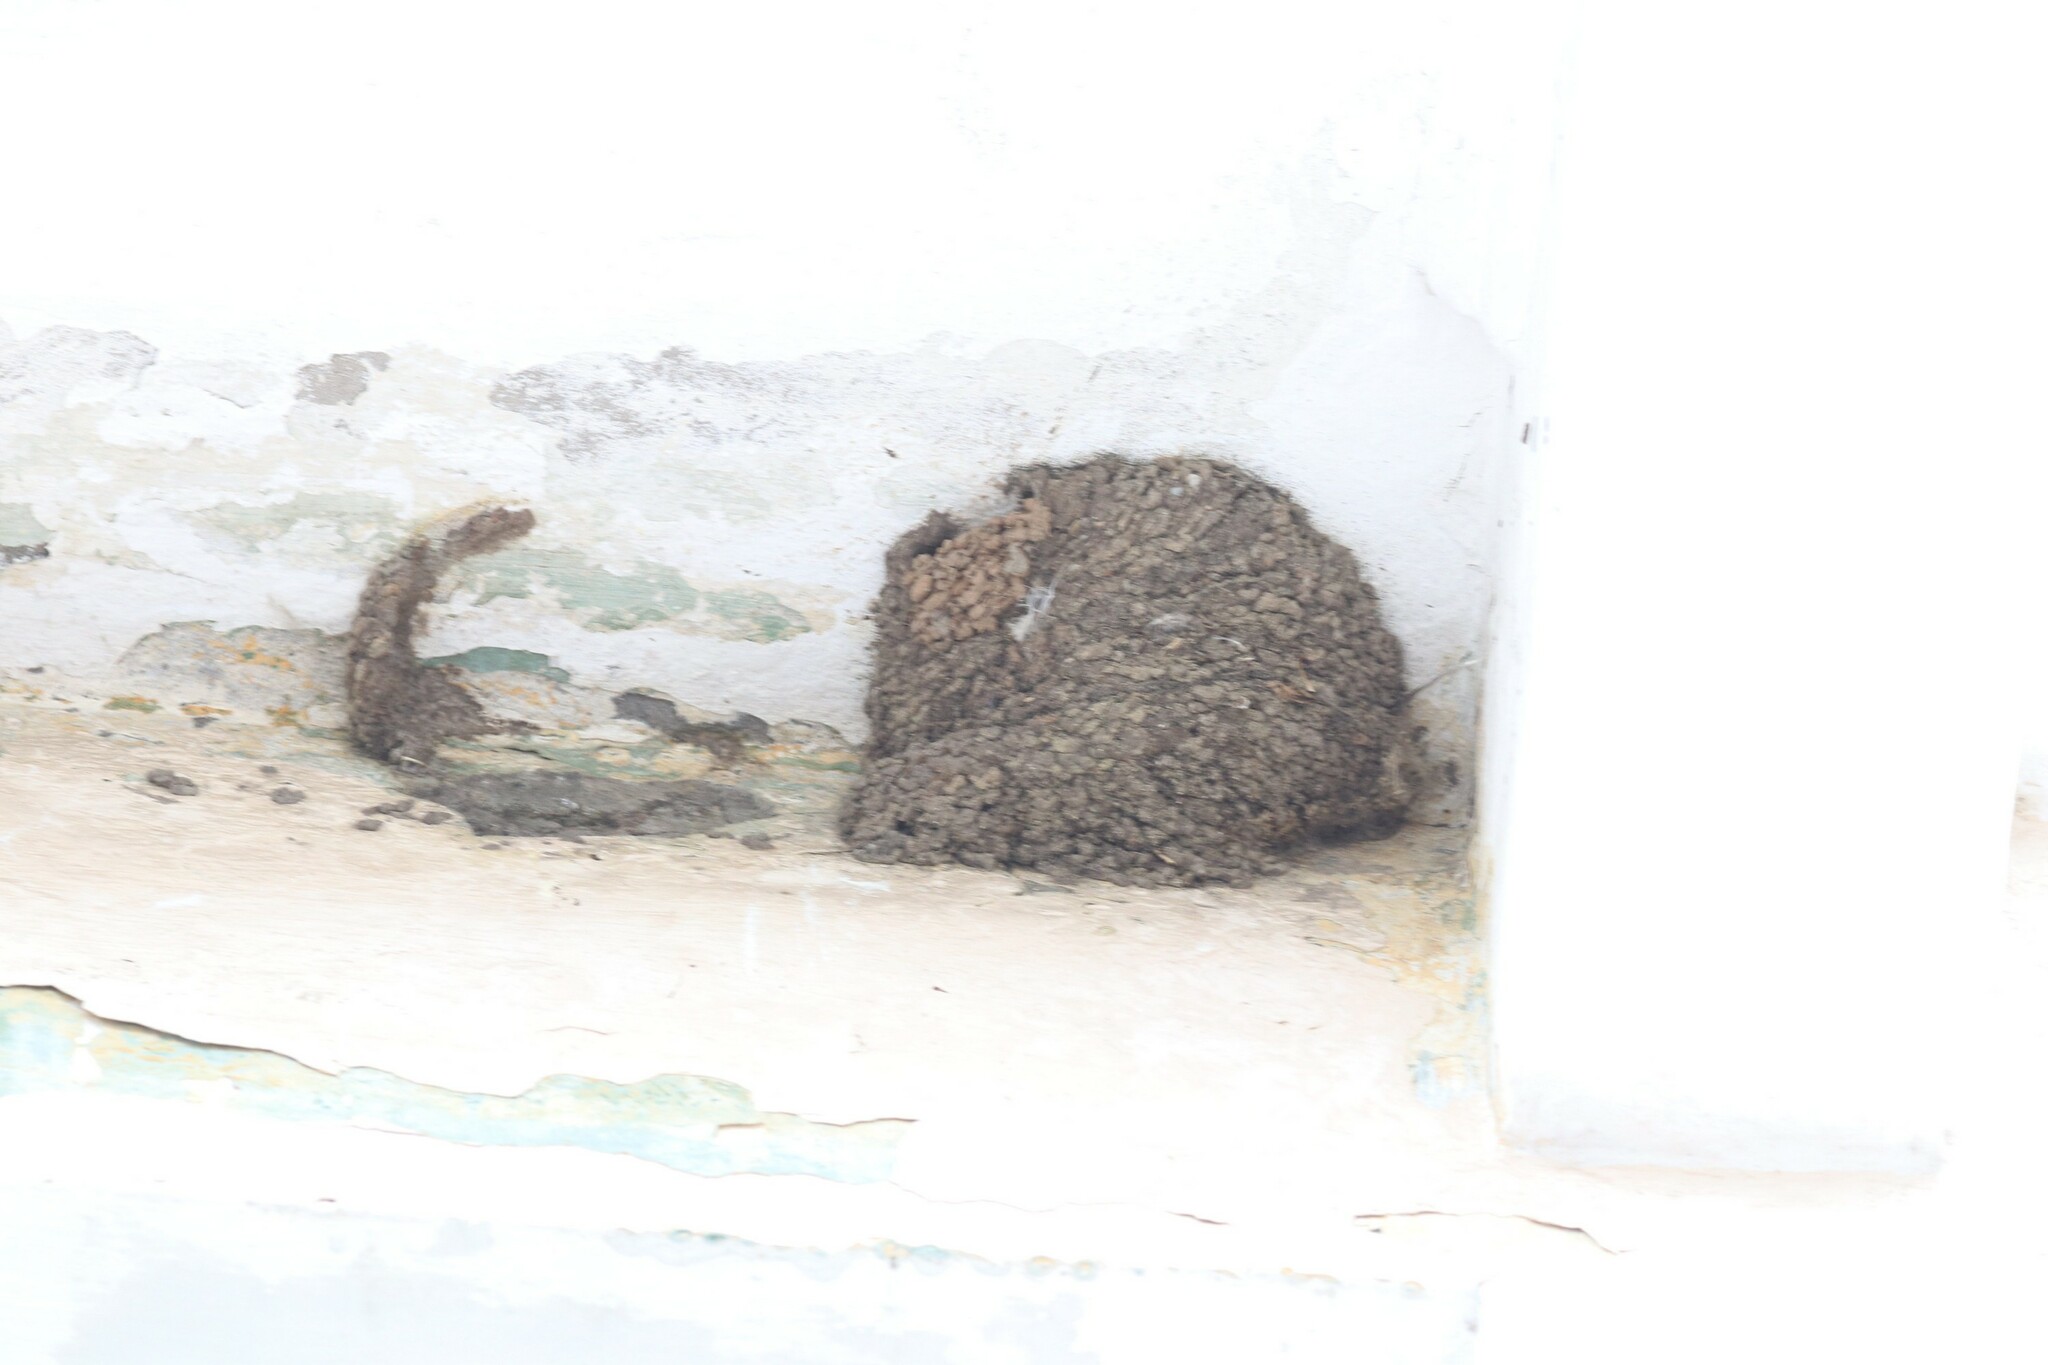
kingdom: Animalia
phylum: Chordata
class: Aves
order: Passeriformes
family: Hirundinidae
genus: Delichon
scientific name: Delichon urbicum
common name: Common house martin
